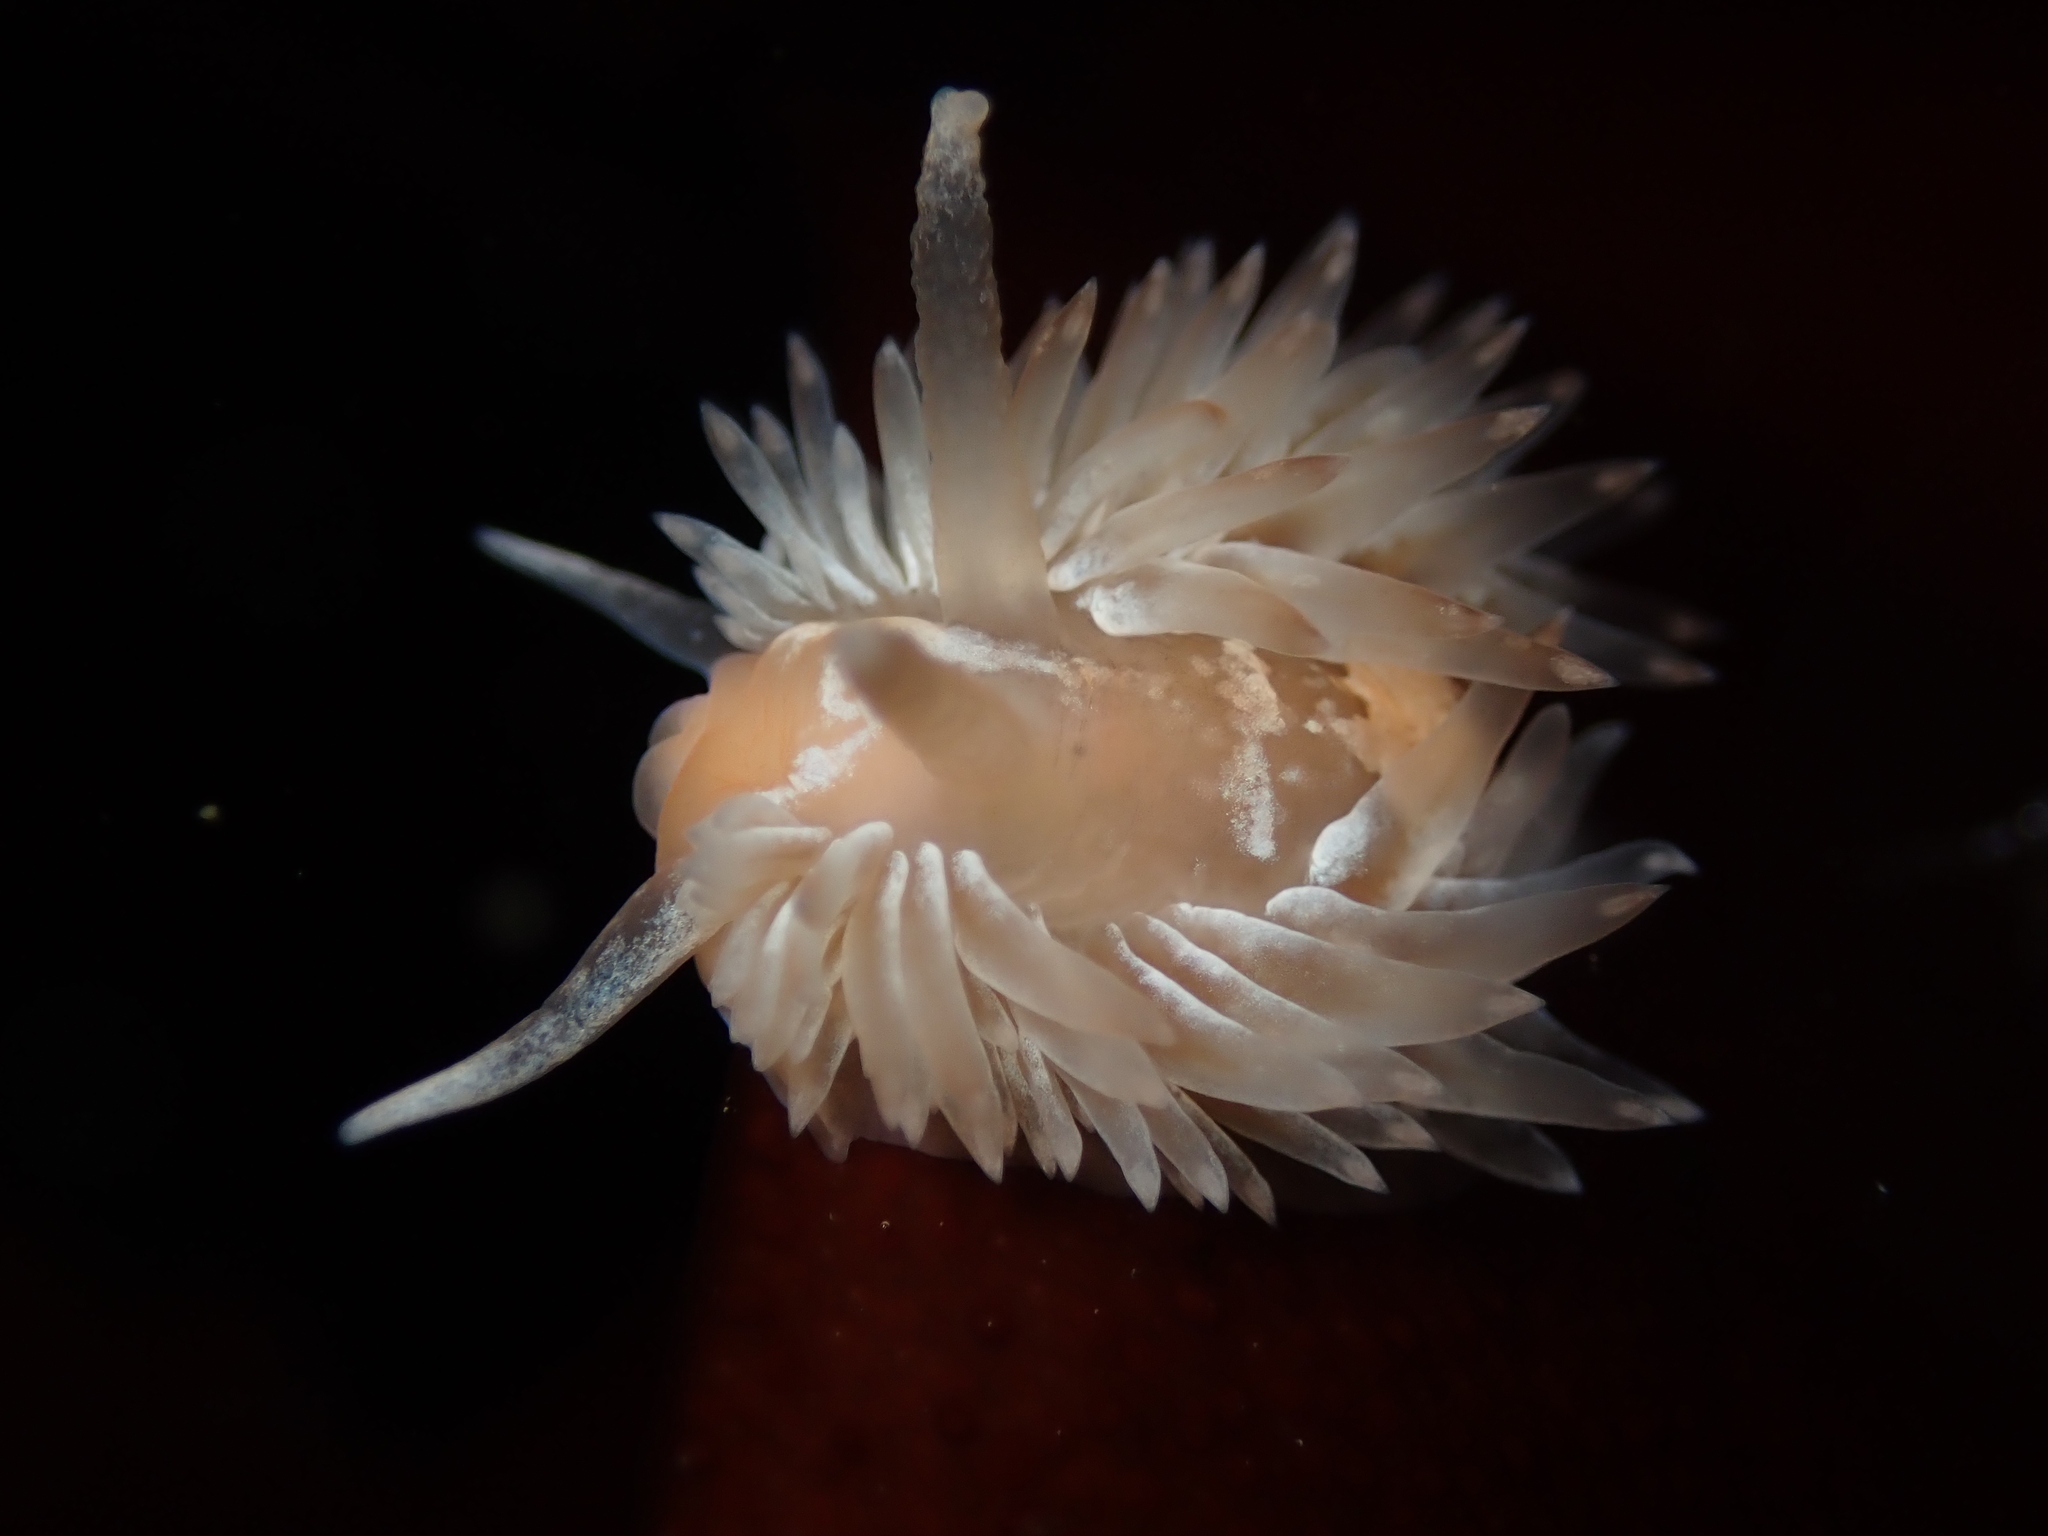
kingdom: Animalia
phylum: Mollusca
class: Gastropoda
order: Nudibranchia
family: Aeolidiidae
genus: Aeolidia
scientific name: Aeolidia loui
